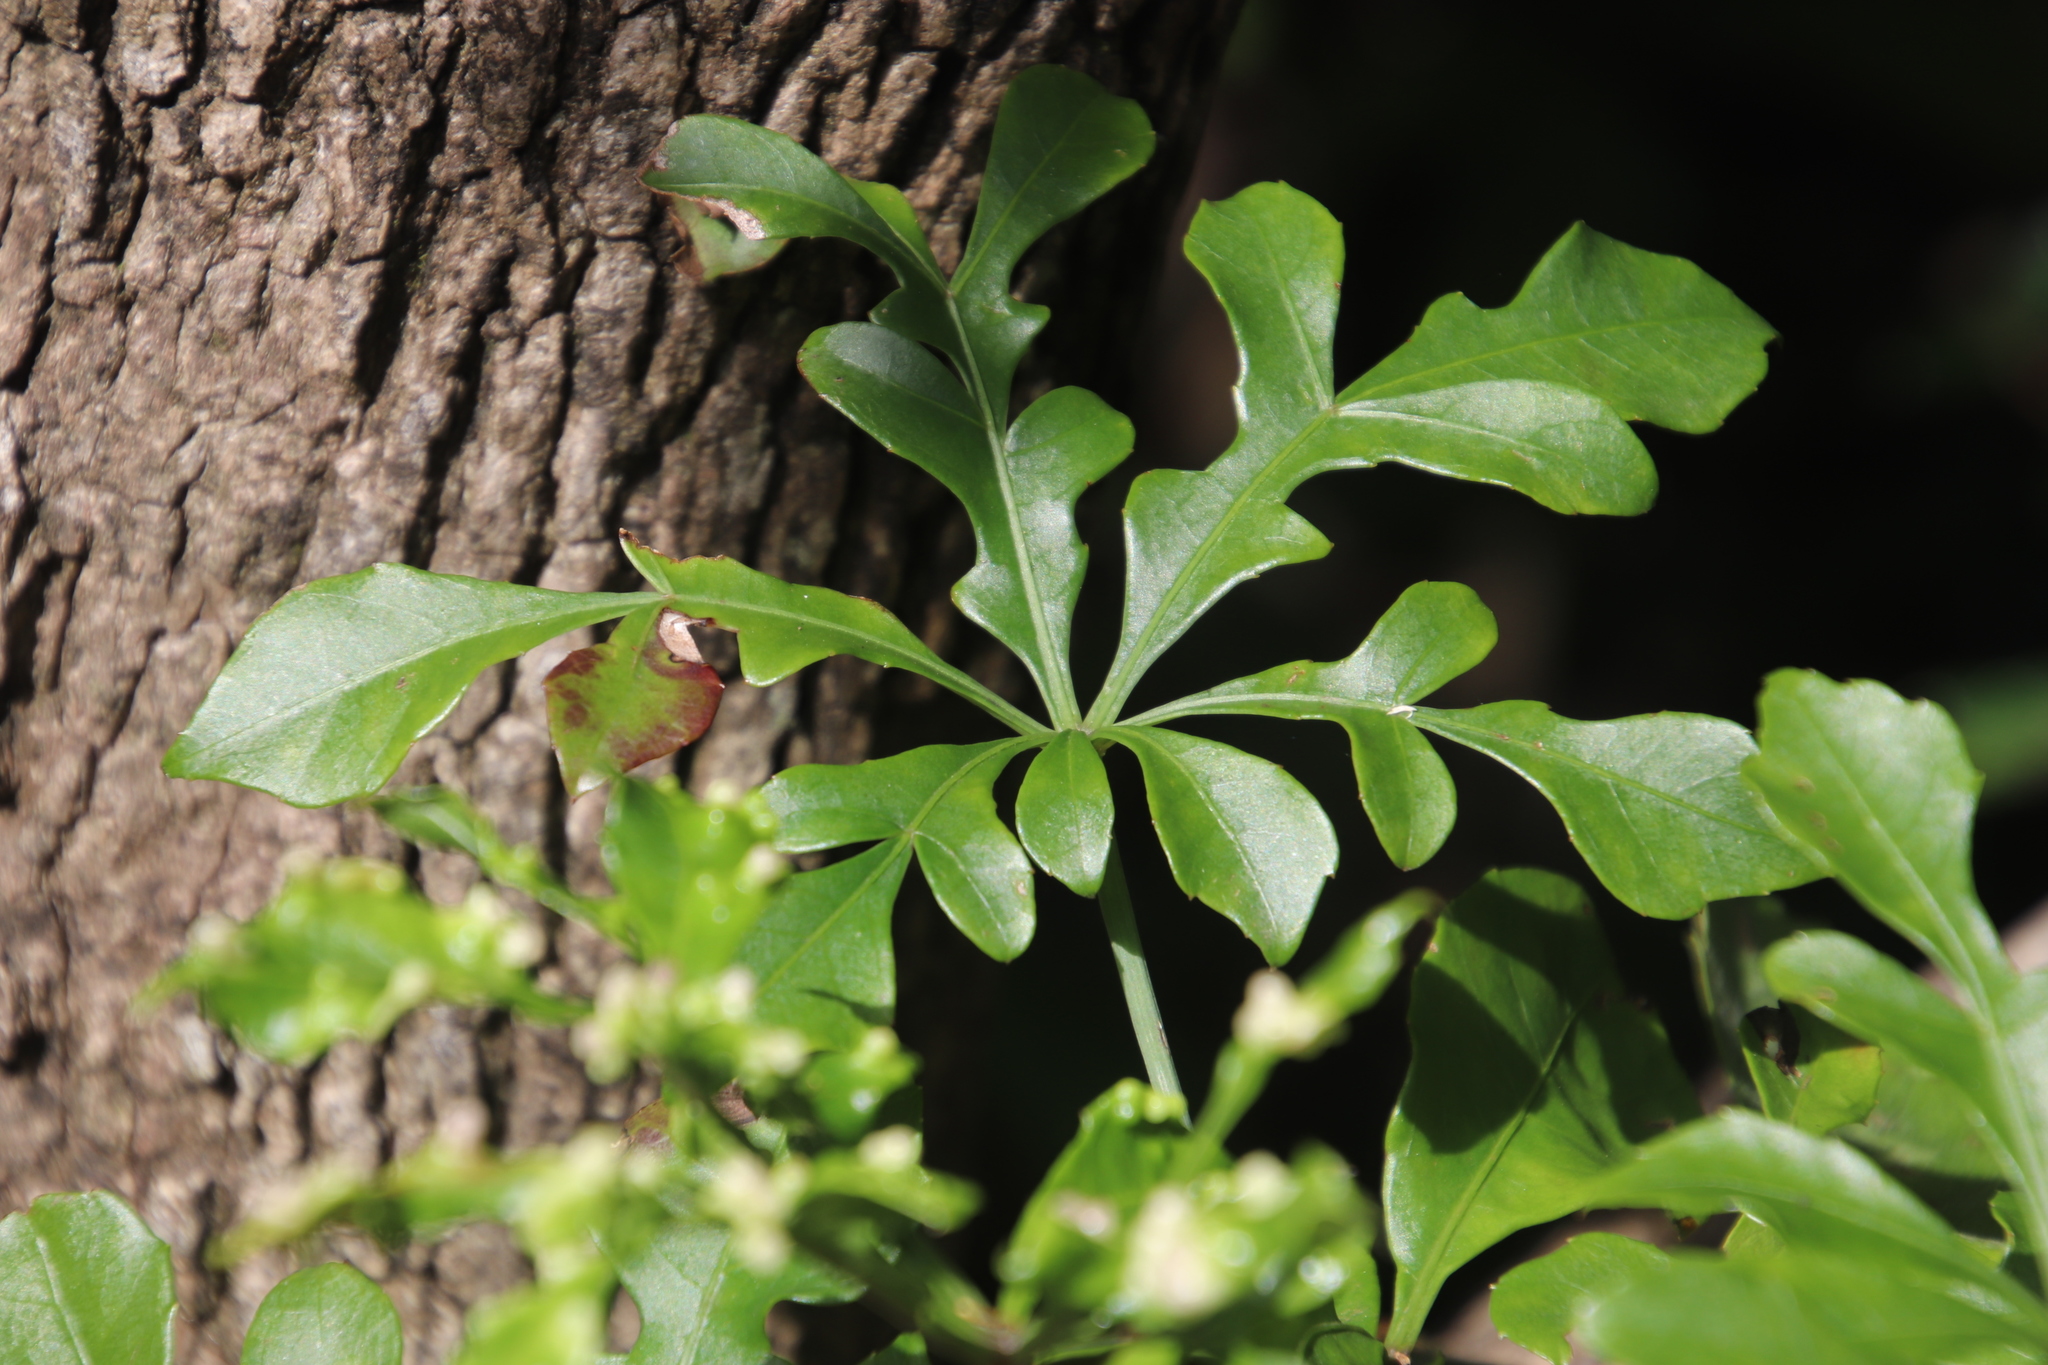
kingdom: Plantae
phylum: Tracheophyta
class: Magnoliopsida
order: Apiales
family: Araliaceae
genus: Cussonia
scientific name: Cussonia spicata
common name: Common cabbagetree
